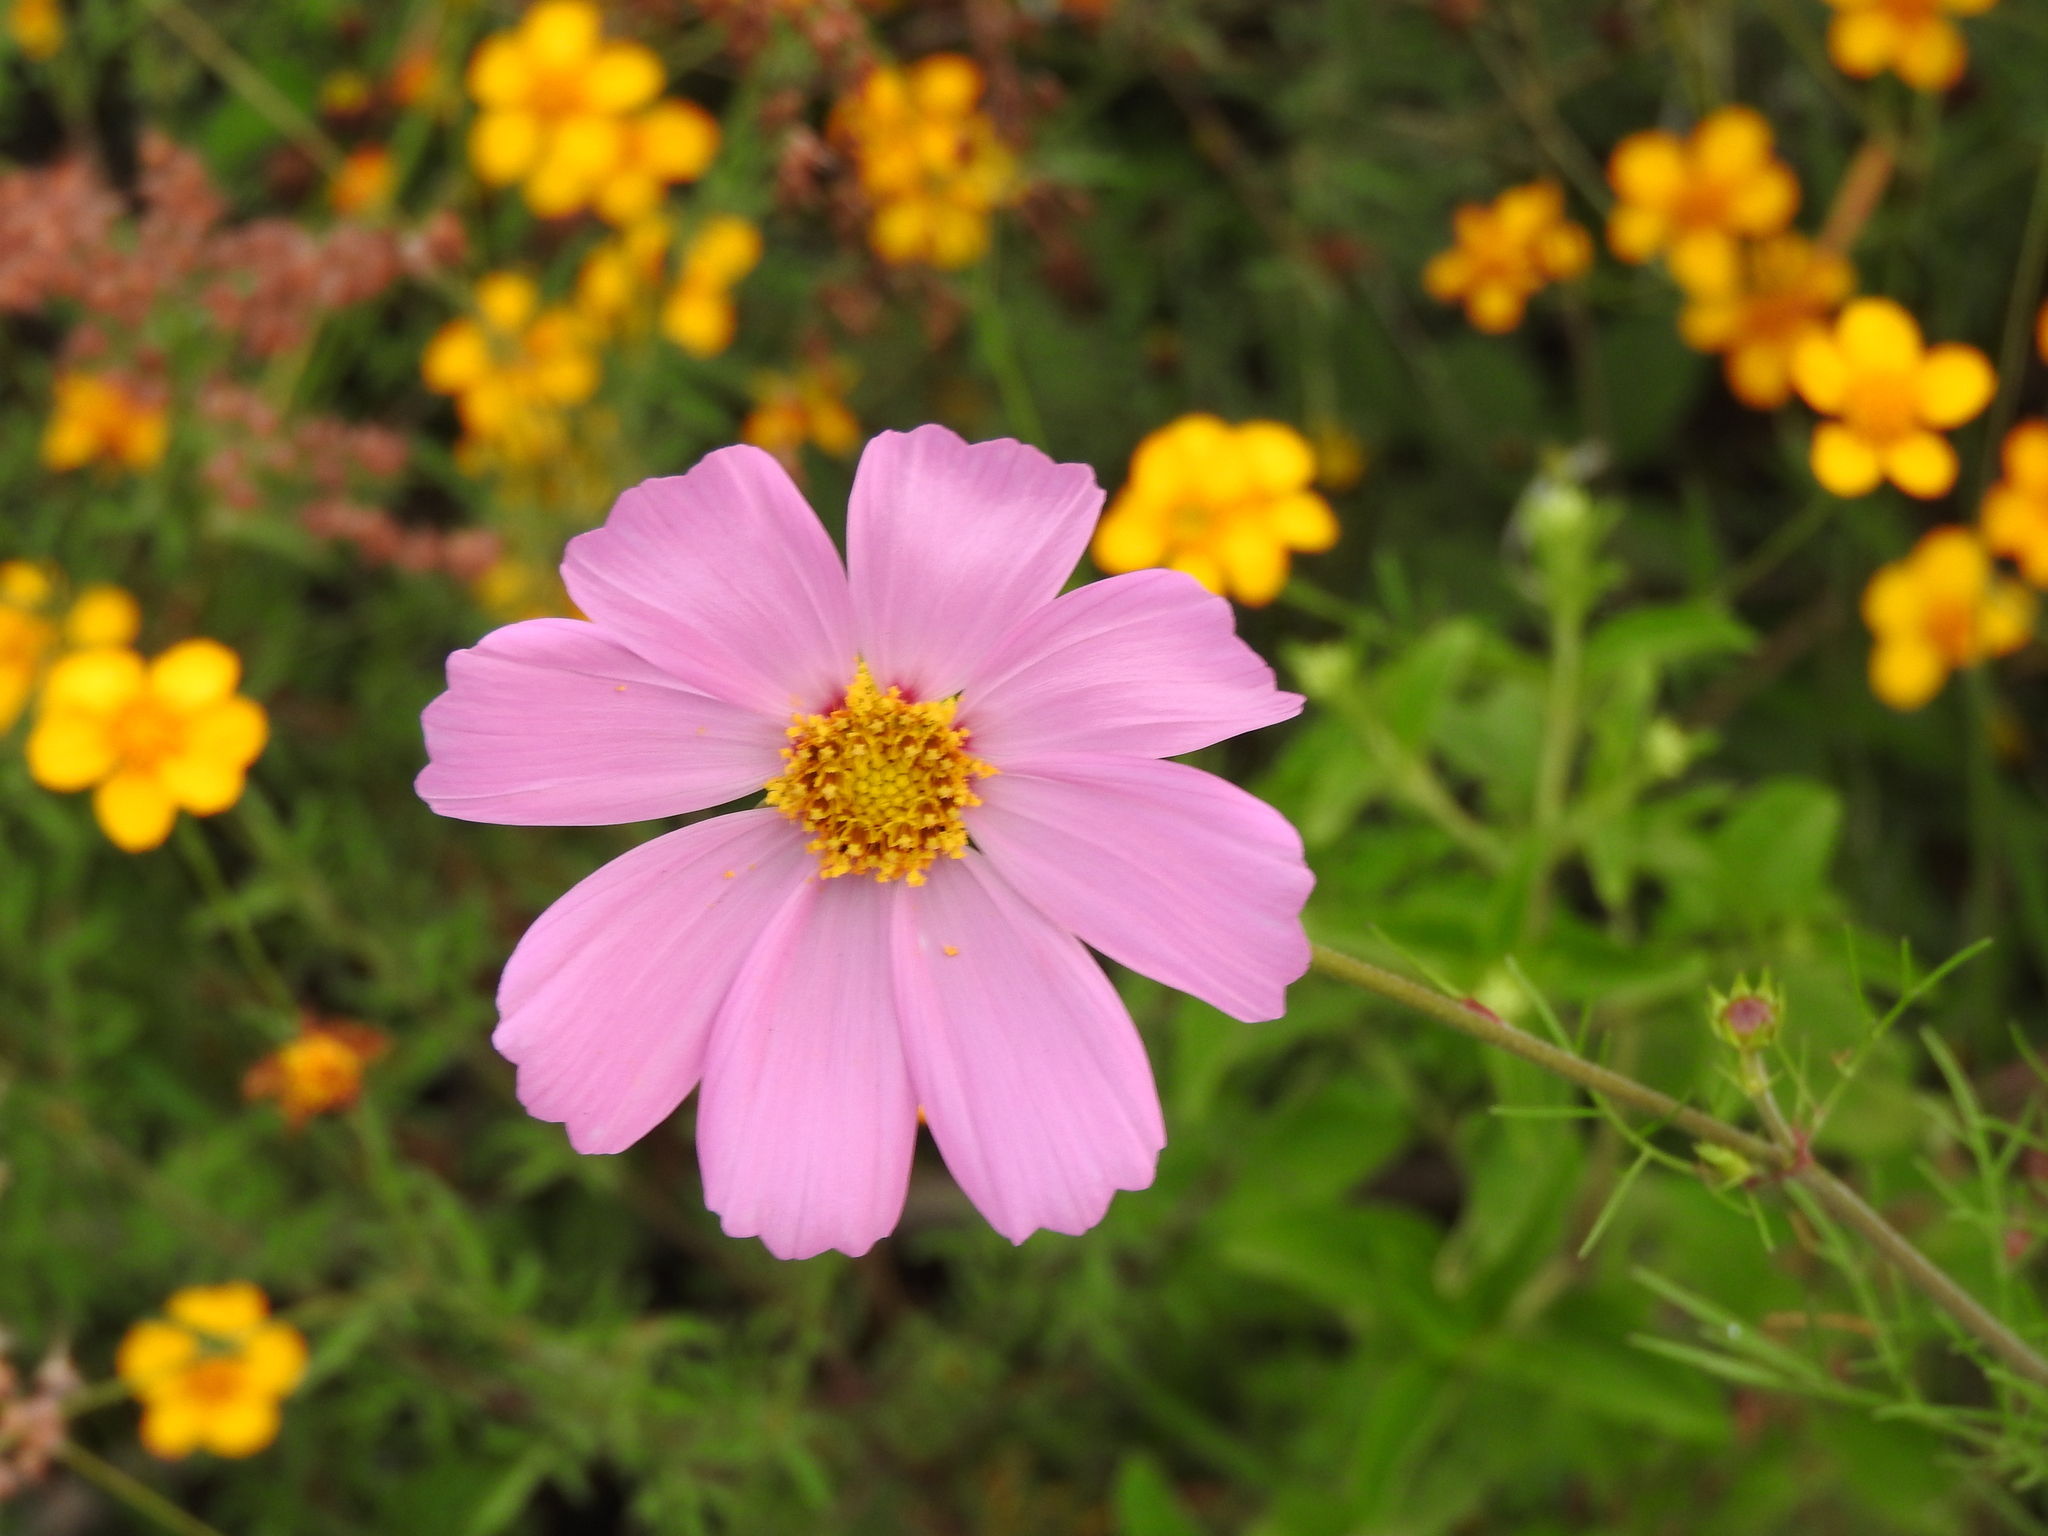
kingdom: Plantae
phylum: Tracheophyta
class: Magnoliopsida
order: Asterales
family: Asteraceae
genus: Cosmos
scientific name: Cosmos bipinnatus
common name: Garden cosmos
